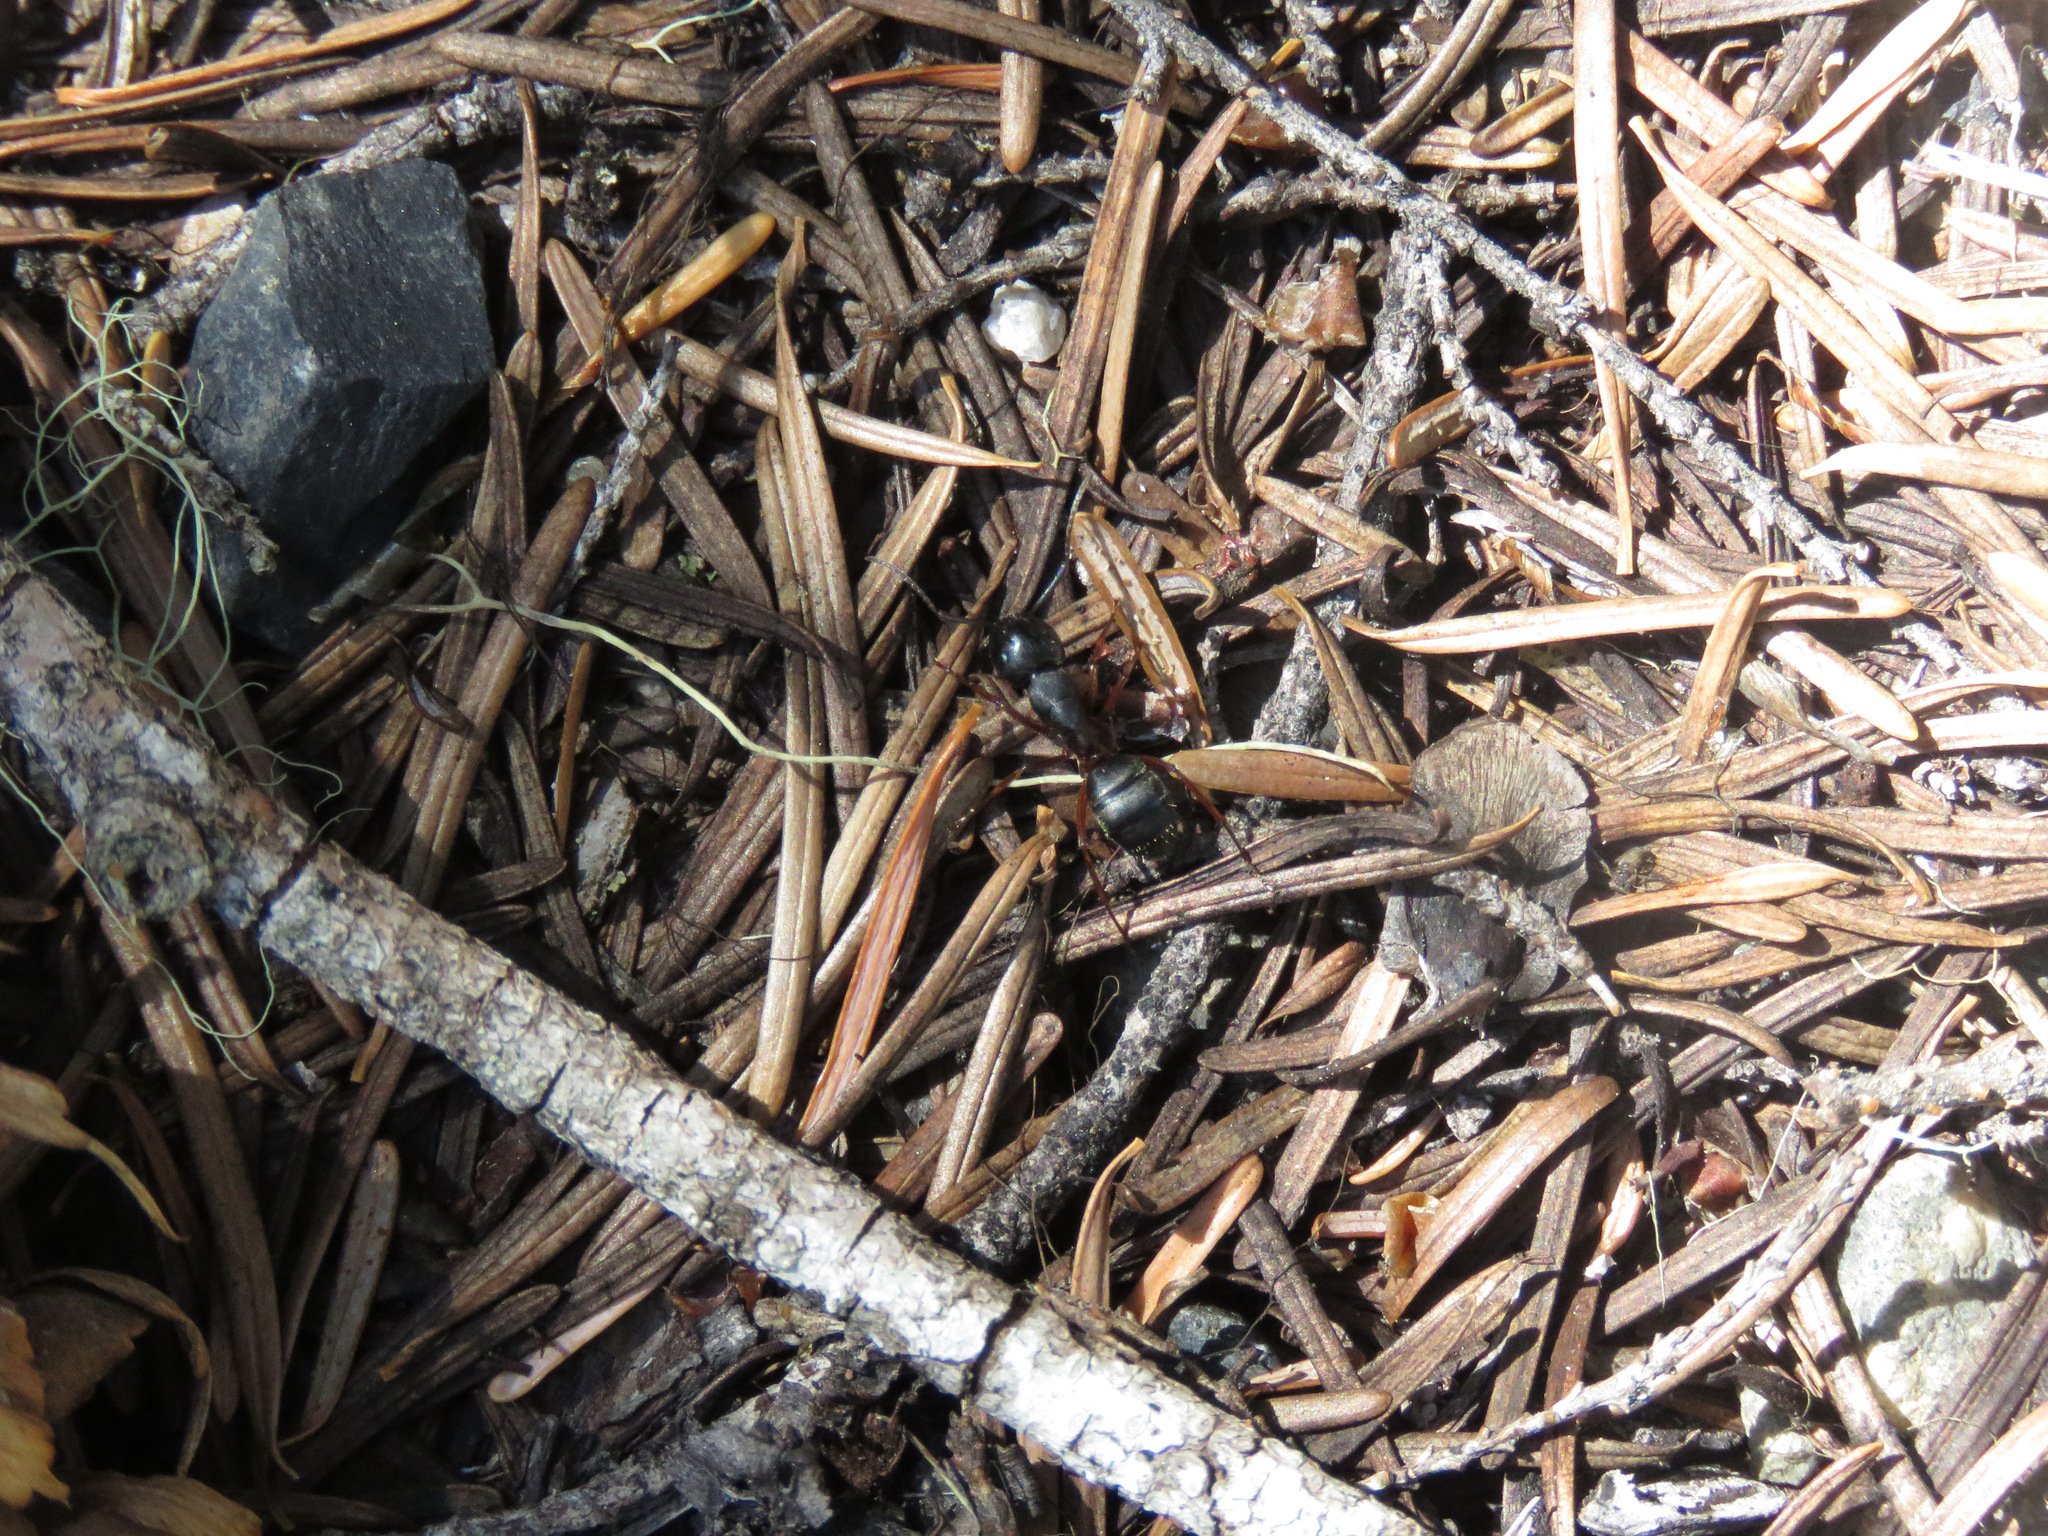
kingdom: Animalia
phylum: Arthropoda
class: Insecta
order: Hymenoptera
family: Formicidae
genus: Camponotus
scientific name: Camponotus modoc
